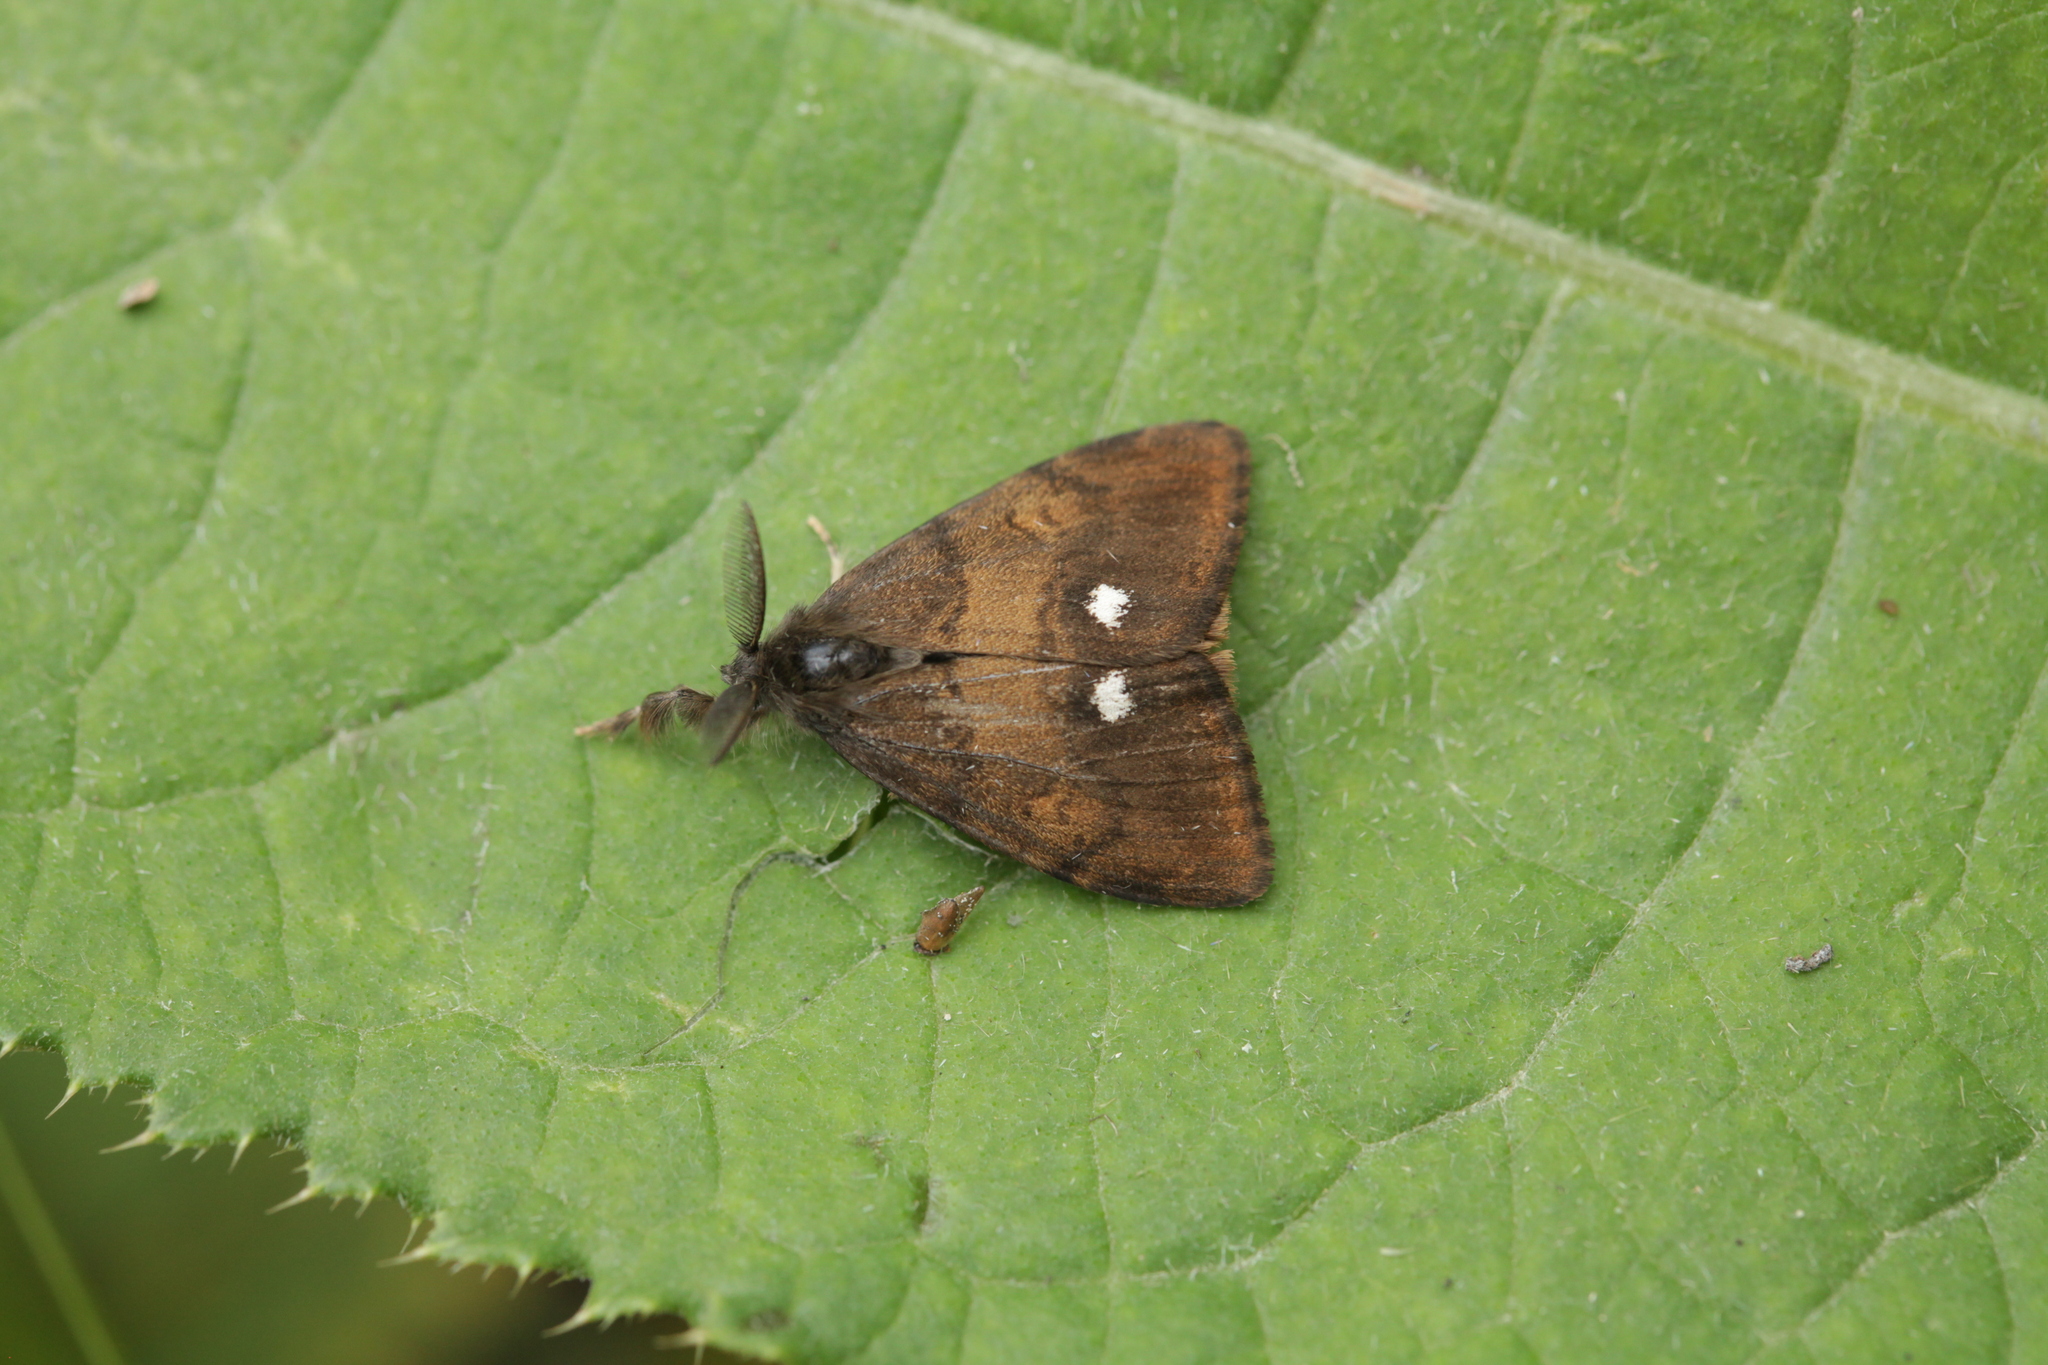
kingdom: Animalia
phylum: Arthropoda
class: Insecta
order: Lepidoptera
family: Erebidae
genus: Orgyia
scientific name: Orgyia antiqua
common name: Vapourer
